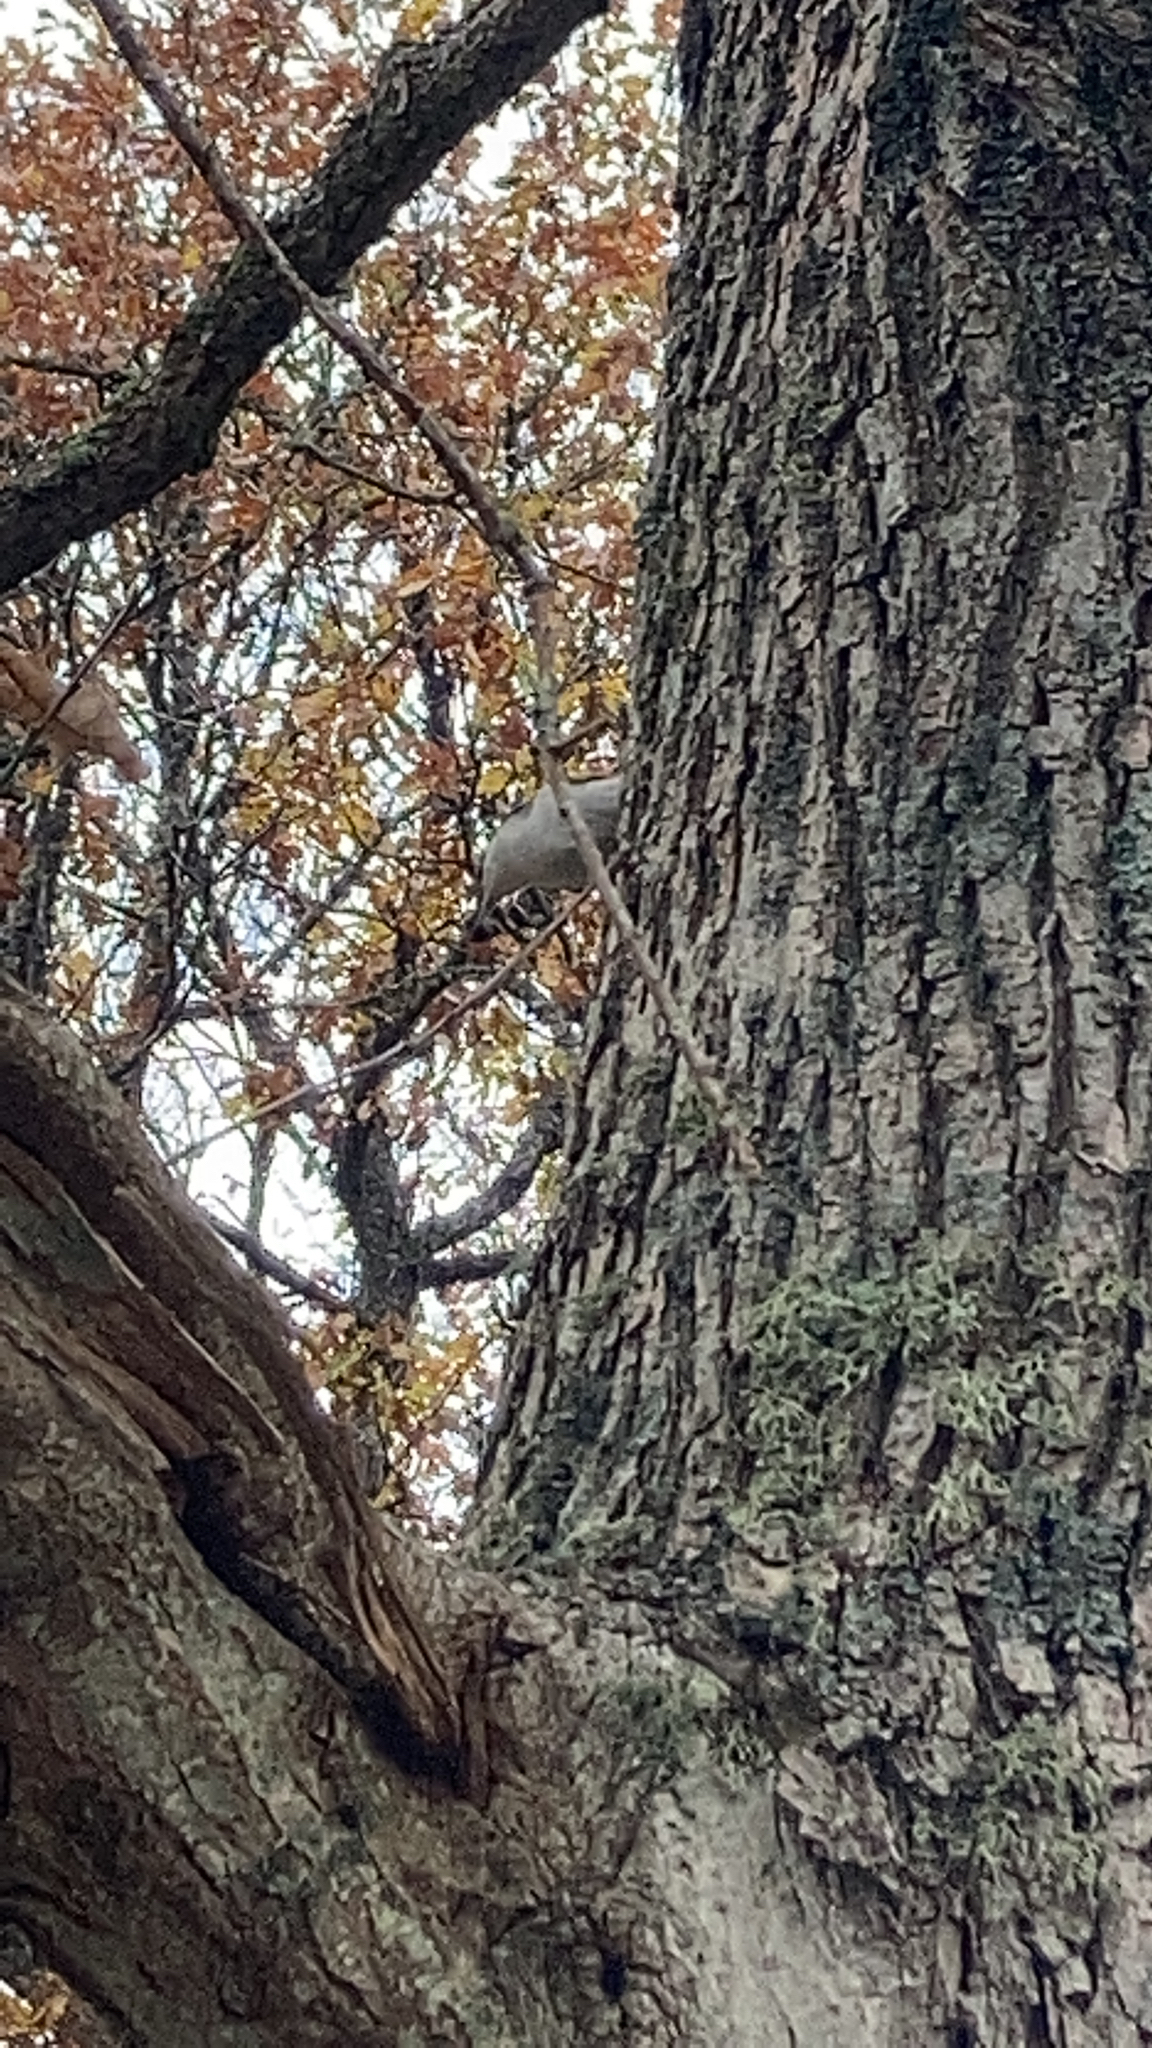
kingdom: Animalia
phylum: Chordata
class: Aves
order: Passeriformes
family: Sittidae
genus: Sitta
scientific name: Sitta europaea
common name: Eurasian nuthatch
